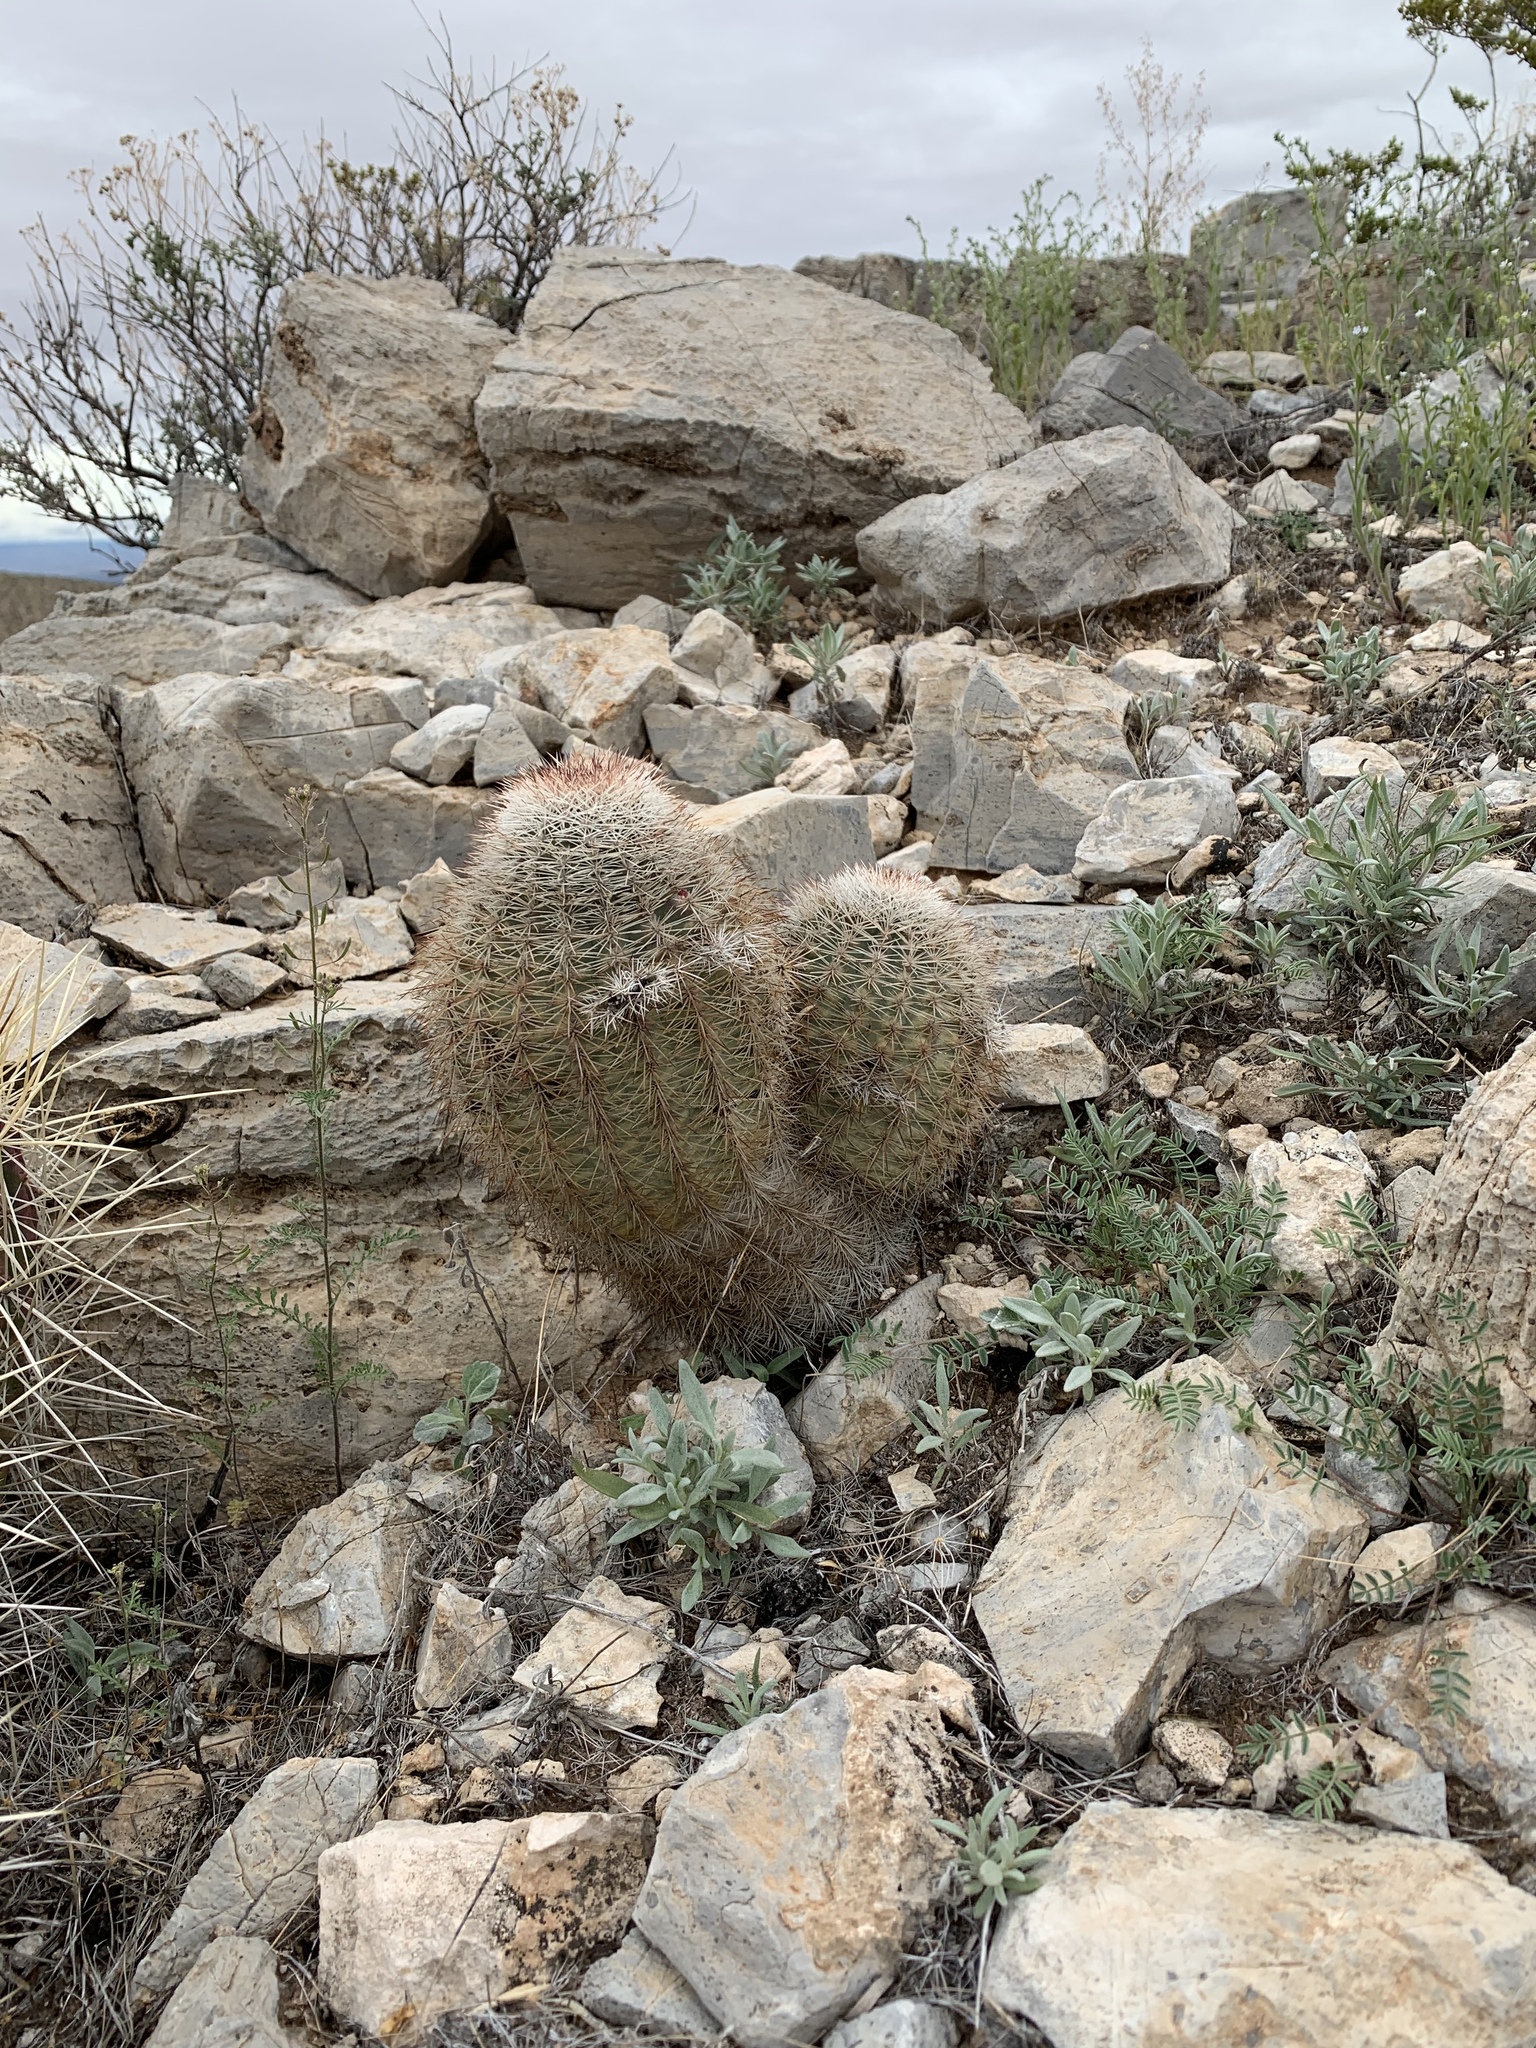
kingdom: Plantae
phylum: Tracheophyta
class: Magnoliopsida
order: Caryophyllales
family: Cactaceae
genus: Echinocereus
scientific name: Echinocereus dasyacanthus
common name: Spiny hedgehog cactus
